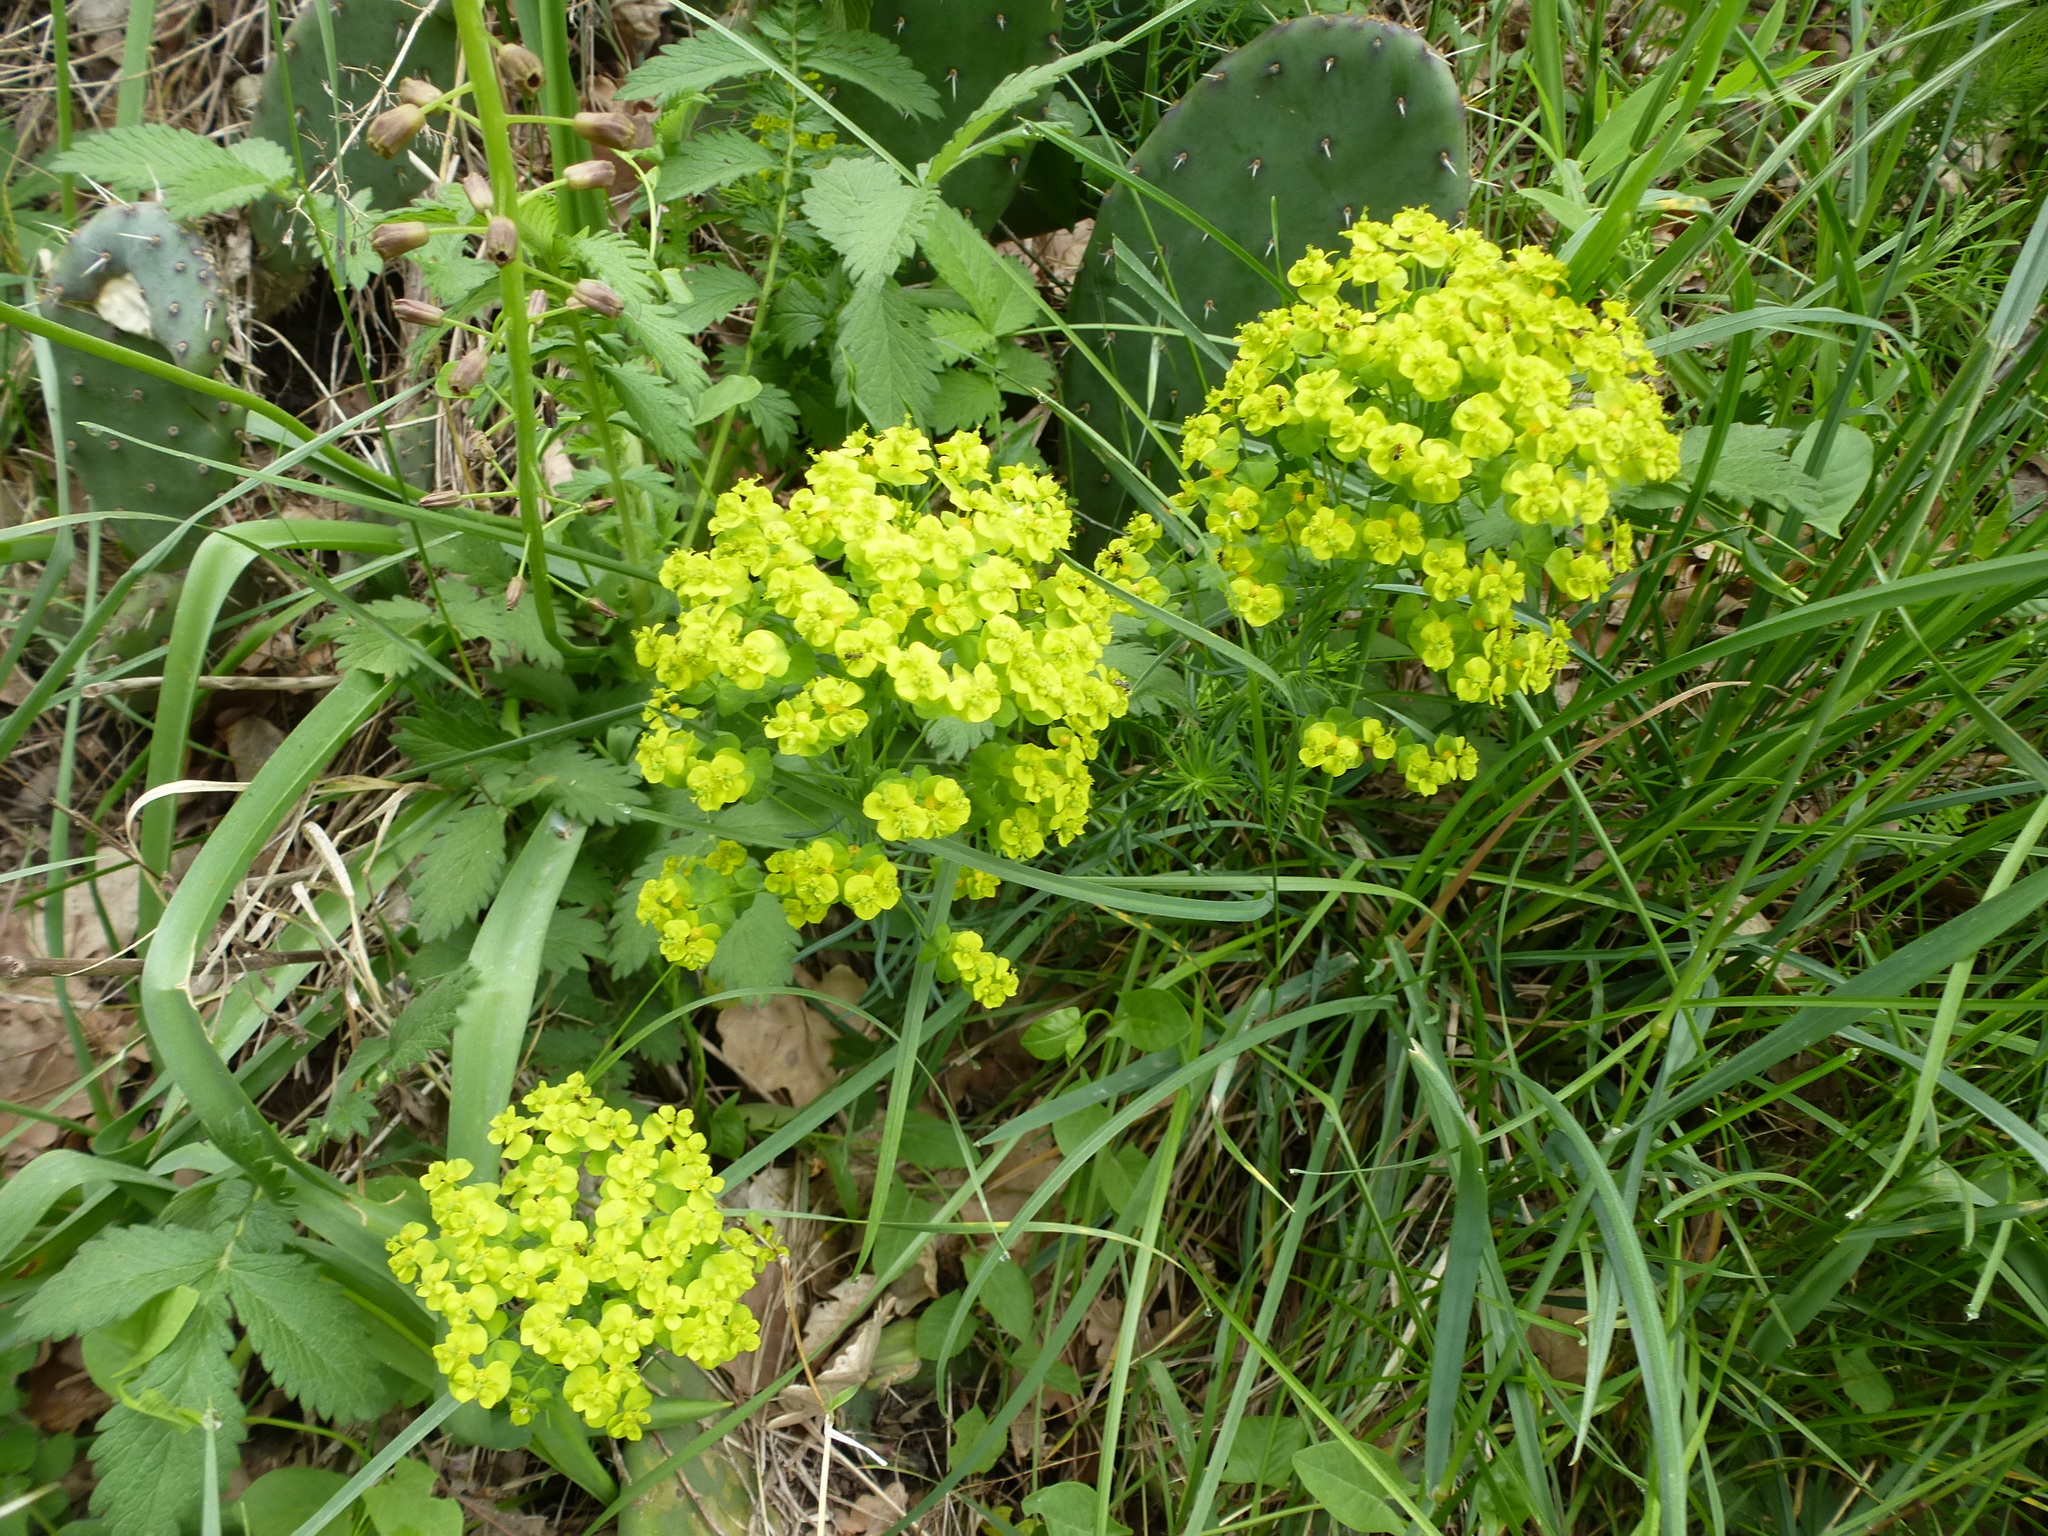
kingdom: Plantae
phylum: Tracheophyta
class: Magnoliopsida
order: Malpighiales
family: Euphorbiaceae
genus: Euphorbia
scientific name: Euphorbia cyparissias
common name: Cypress spurge
